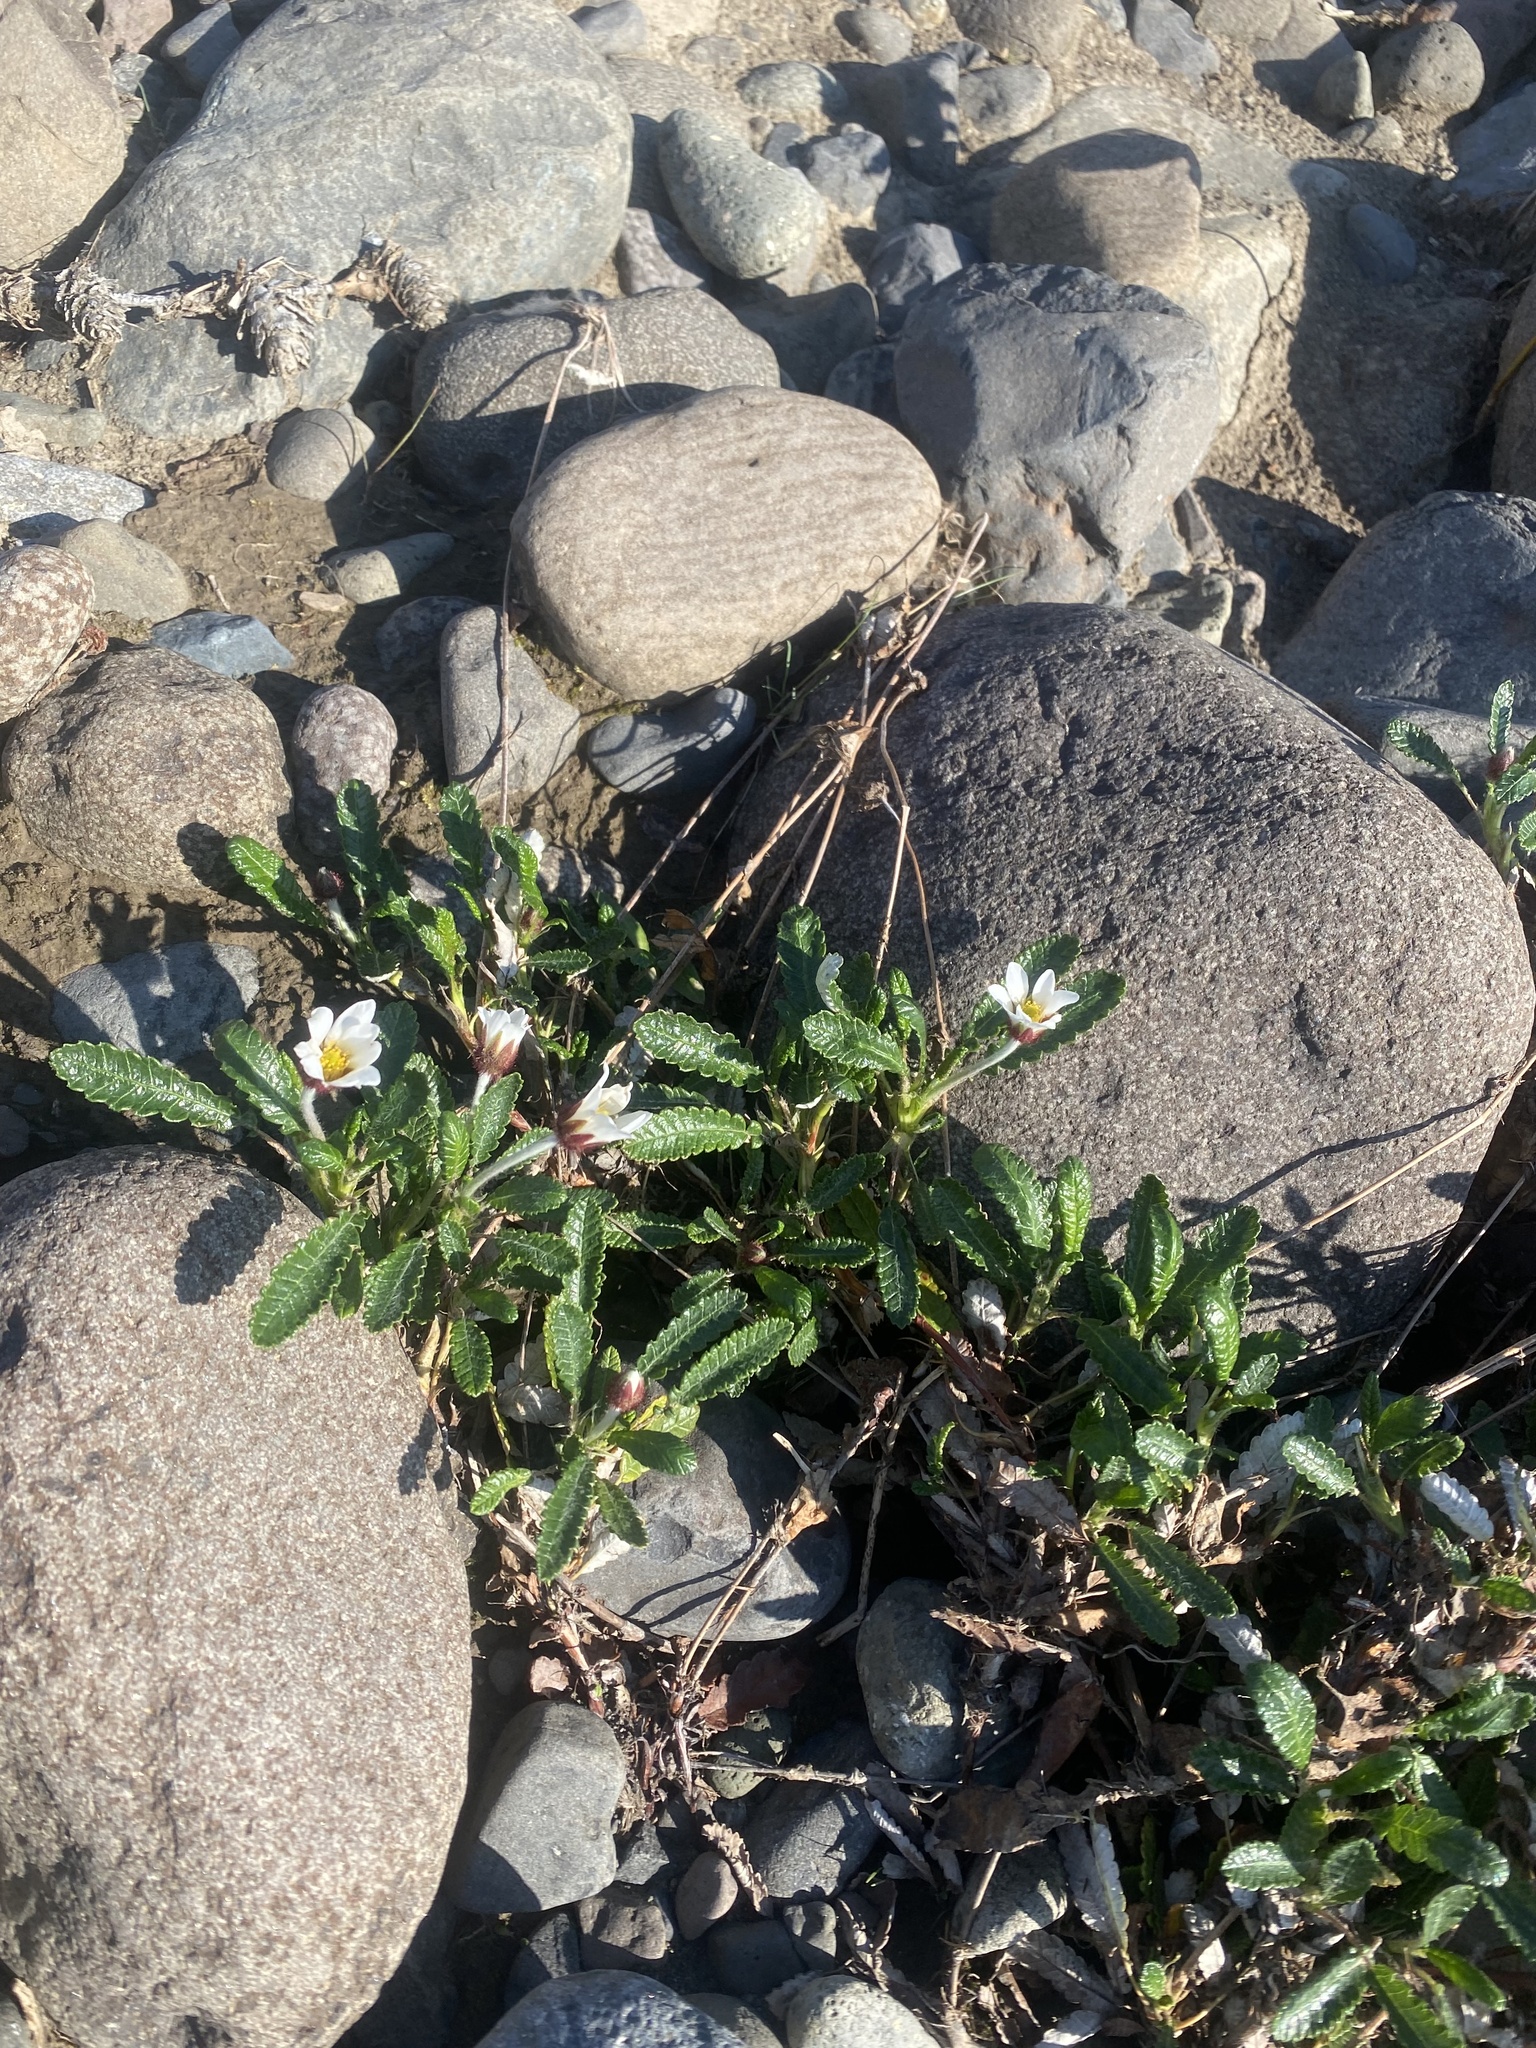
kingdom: Plantae
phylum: Tracheophyta
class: Magnoliopsida
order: Rosales
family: Rosaceae
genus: Dryas
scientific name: Dryas grandis
